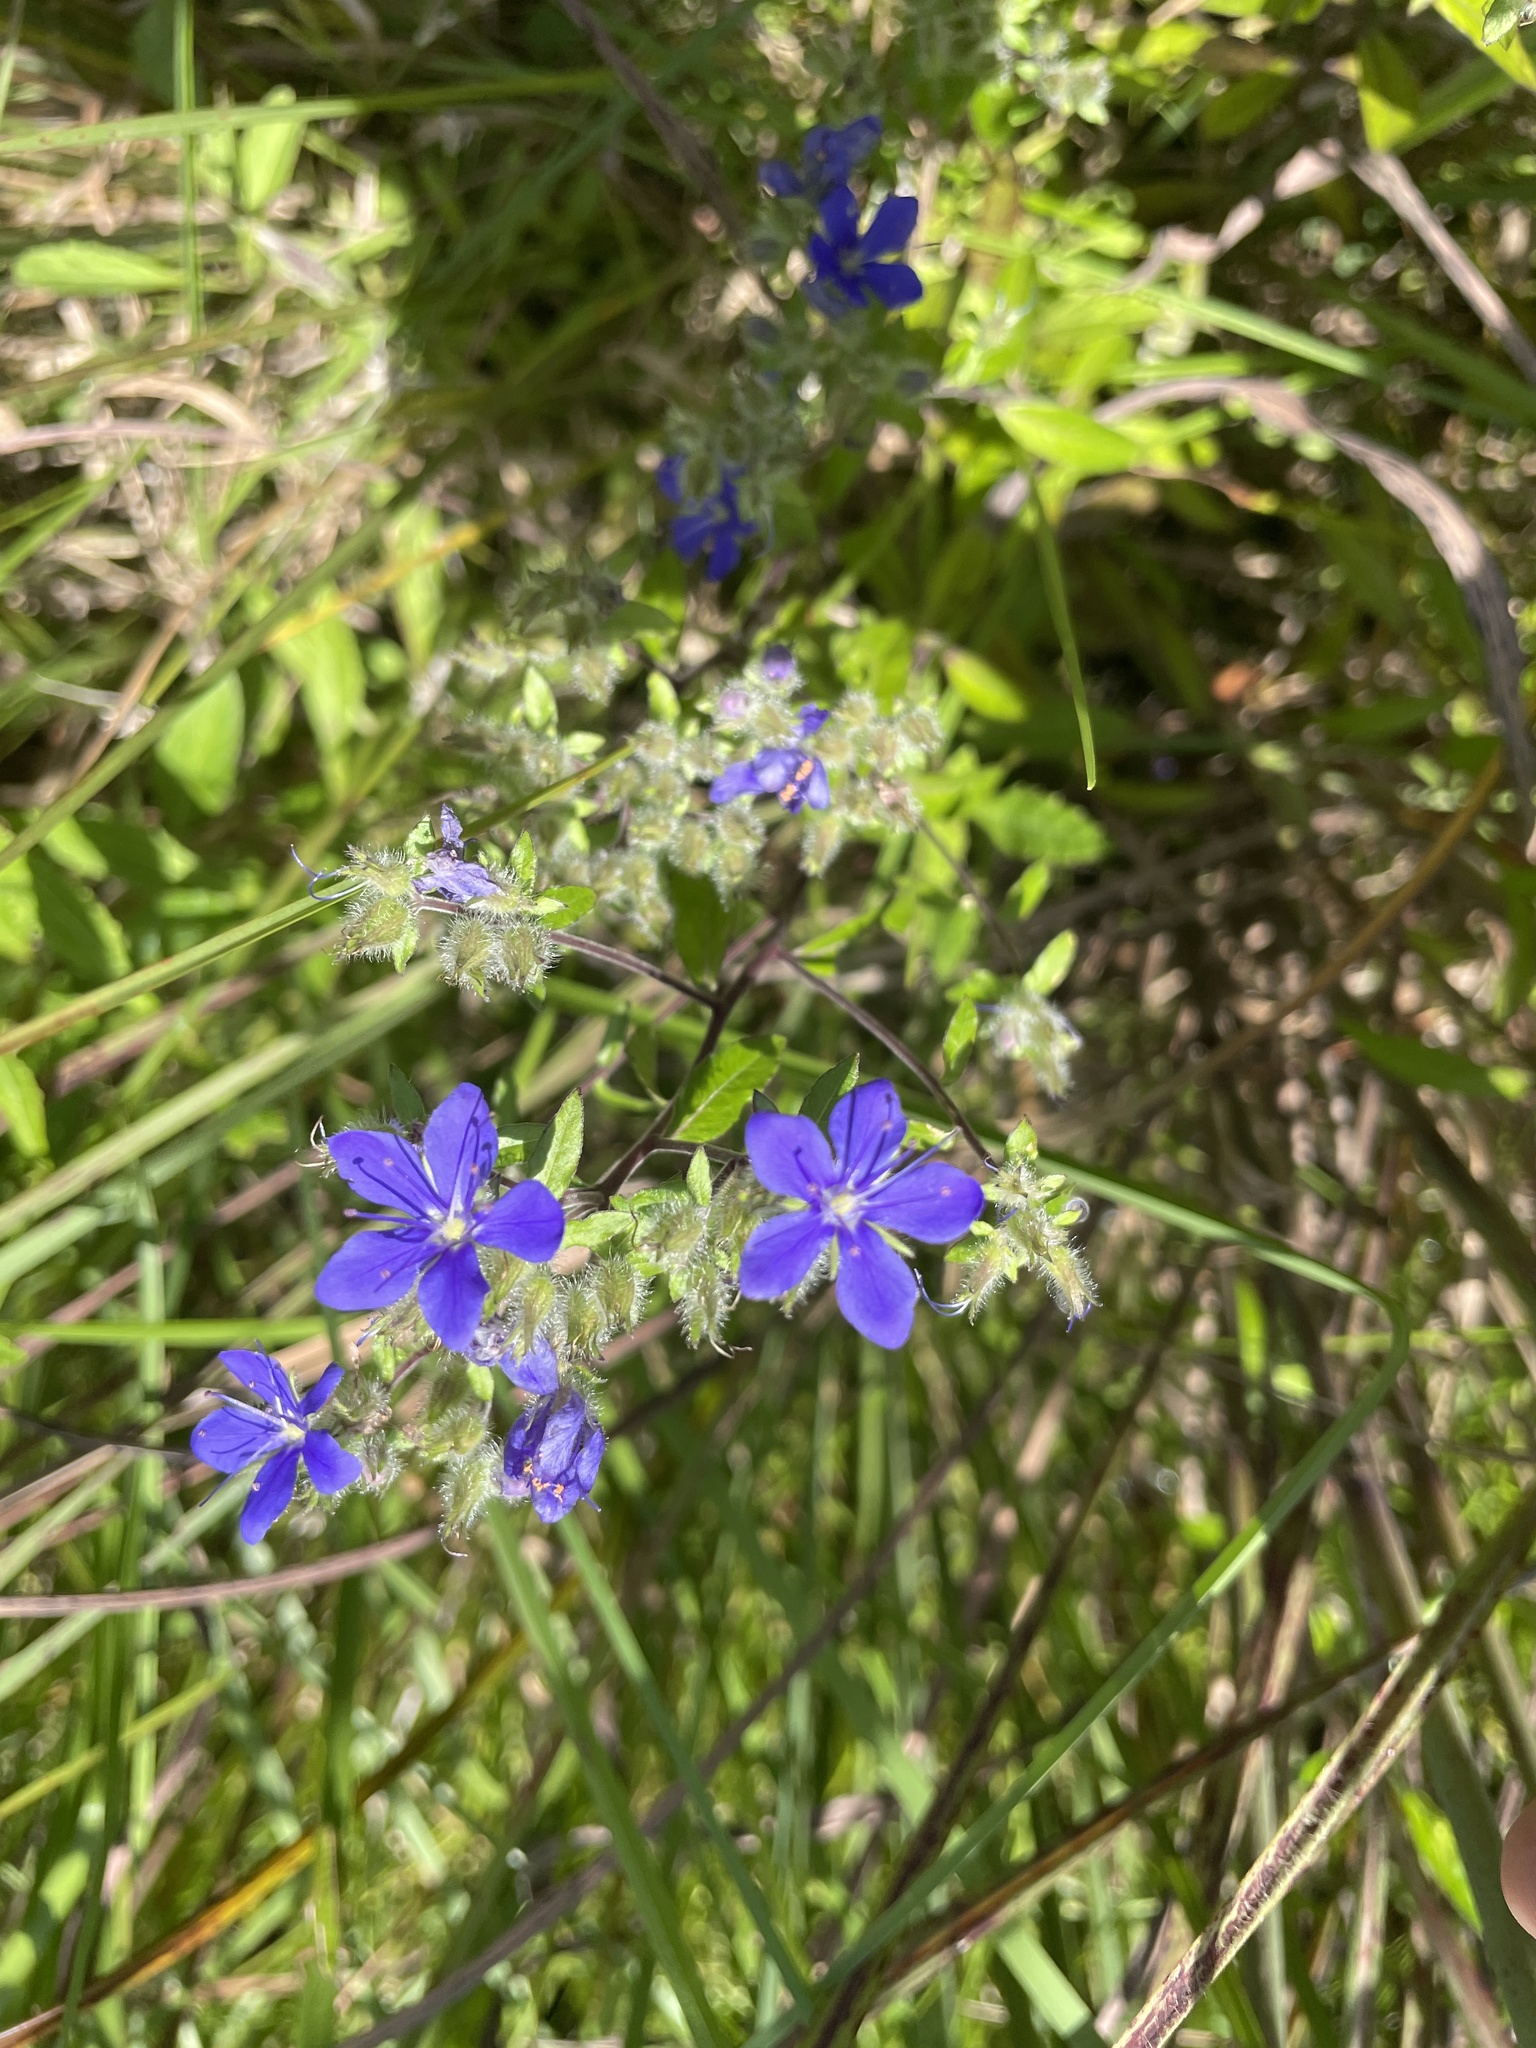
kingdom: Plantae
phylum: Tracheophyta
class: Magnoliopsida
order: Solanales
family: Hydroleaceae
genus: Hydrolea
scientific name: Hydrolea corymbosa
